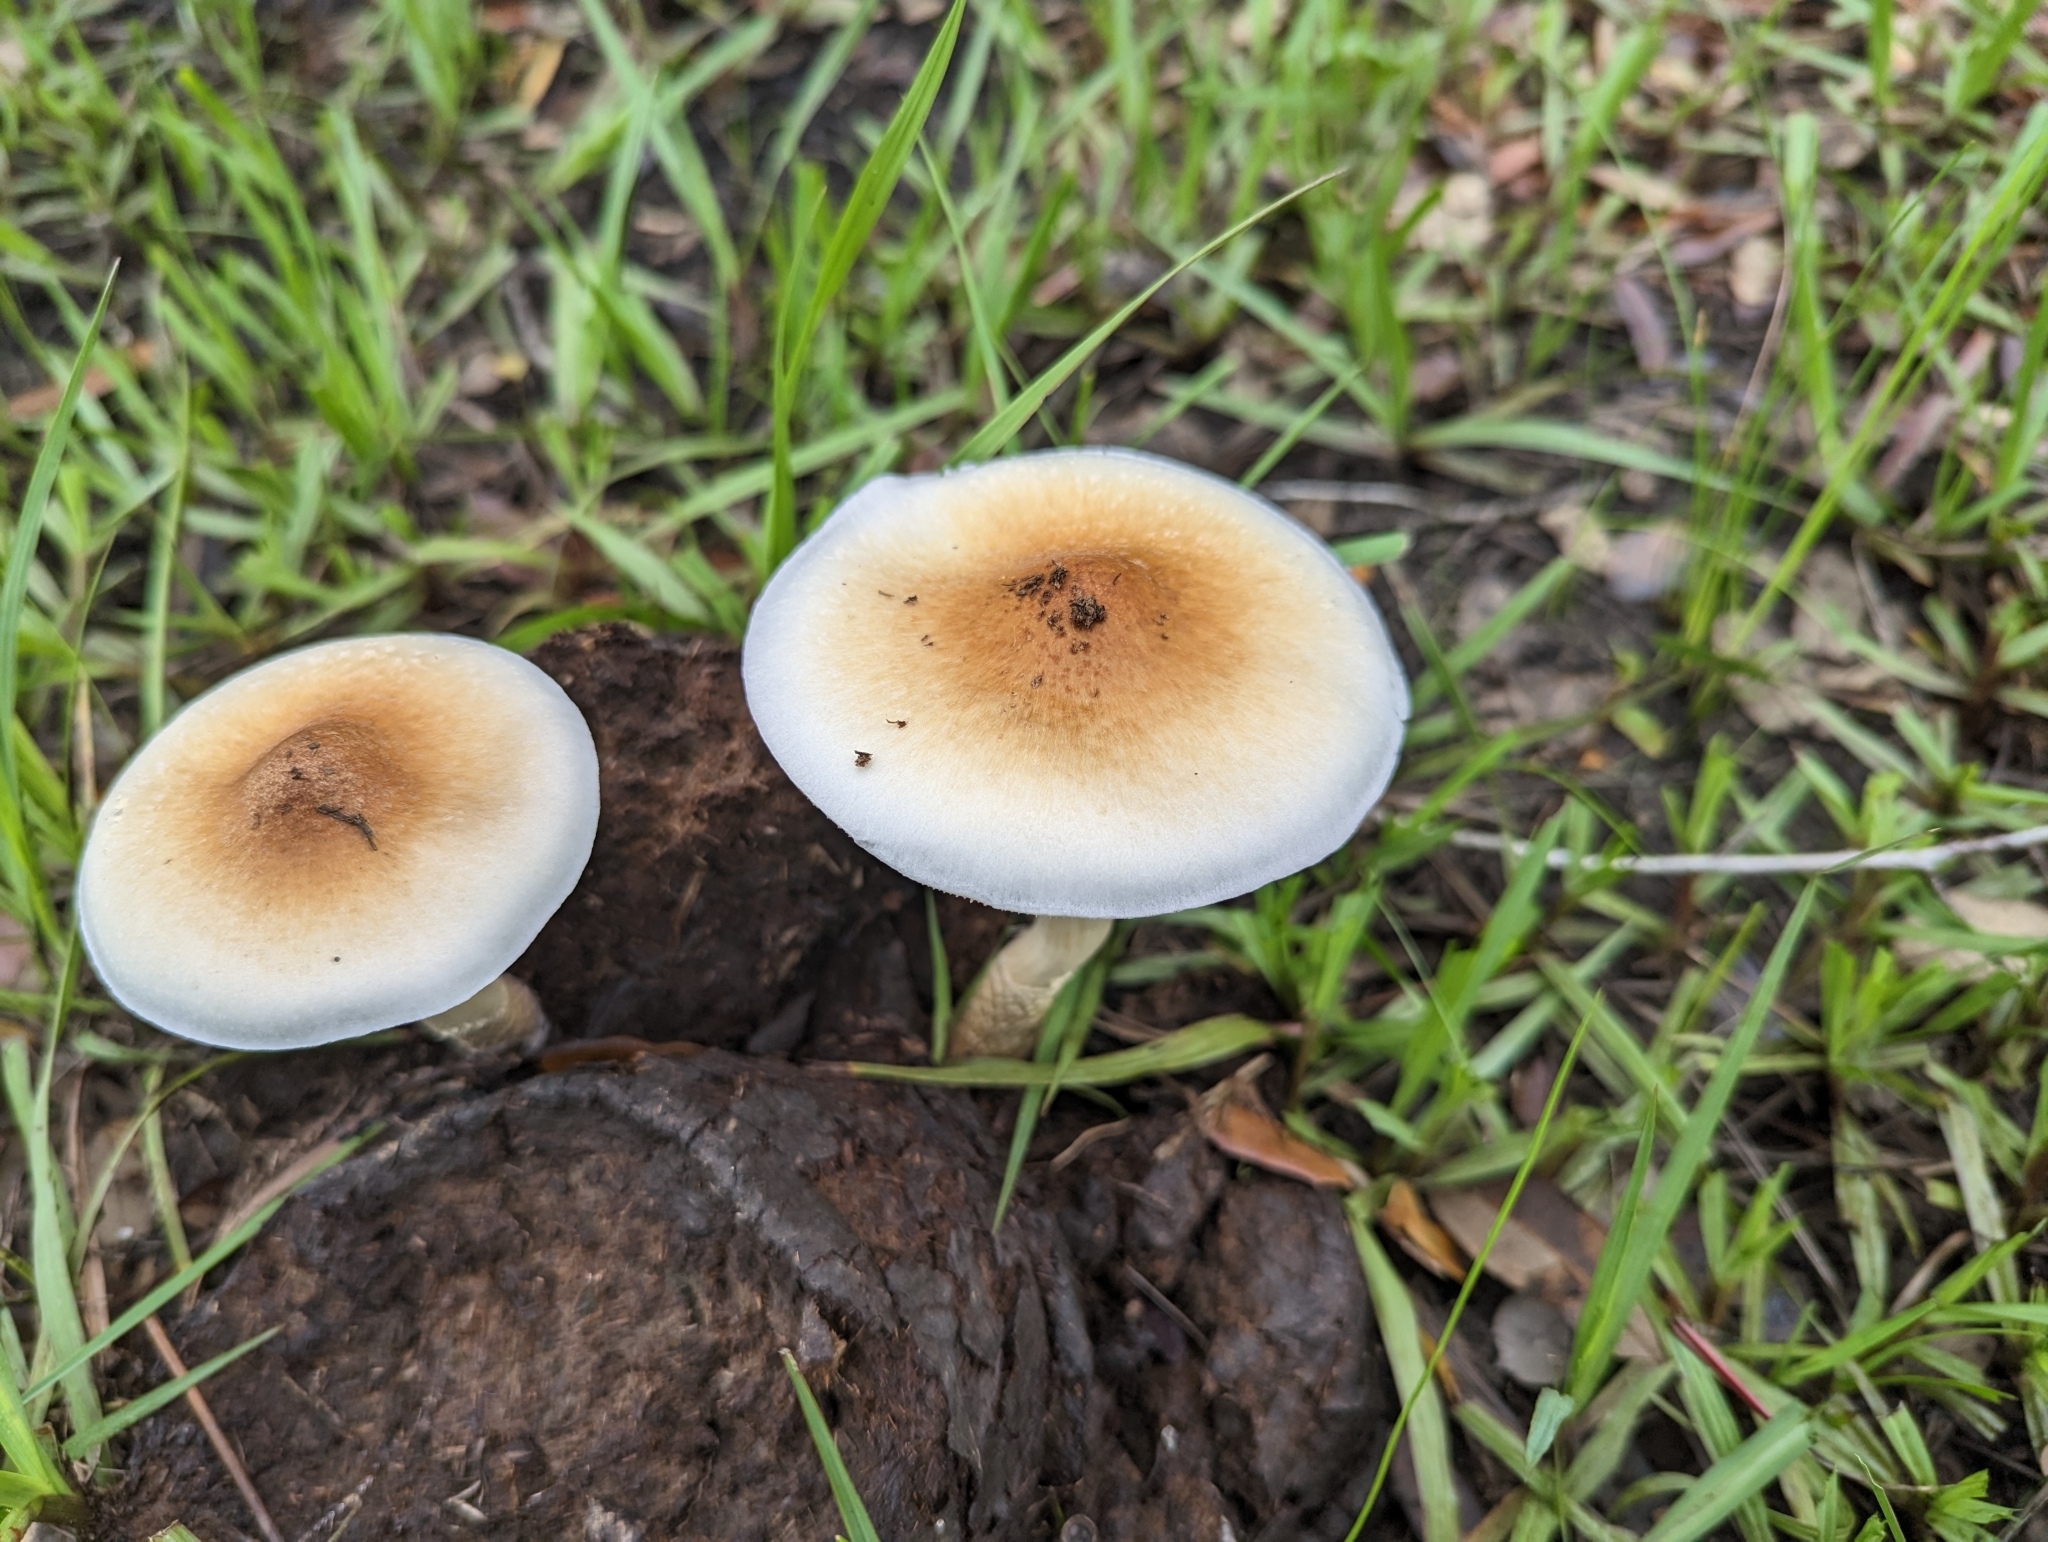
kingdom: Fungi
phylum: Basidiomycota
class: Agaricomycetes
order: Agaricales
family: Hymenogastraceae
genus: Psilocybe
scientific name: Psilocybe cubensis
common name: Golden brownie
